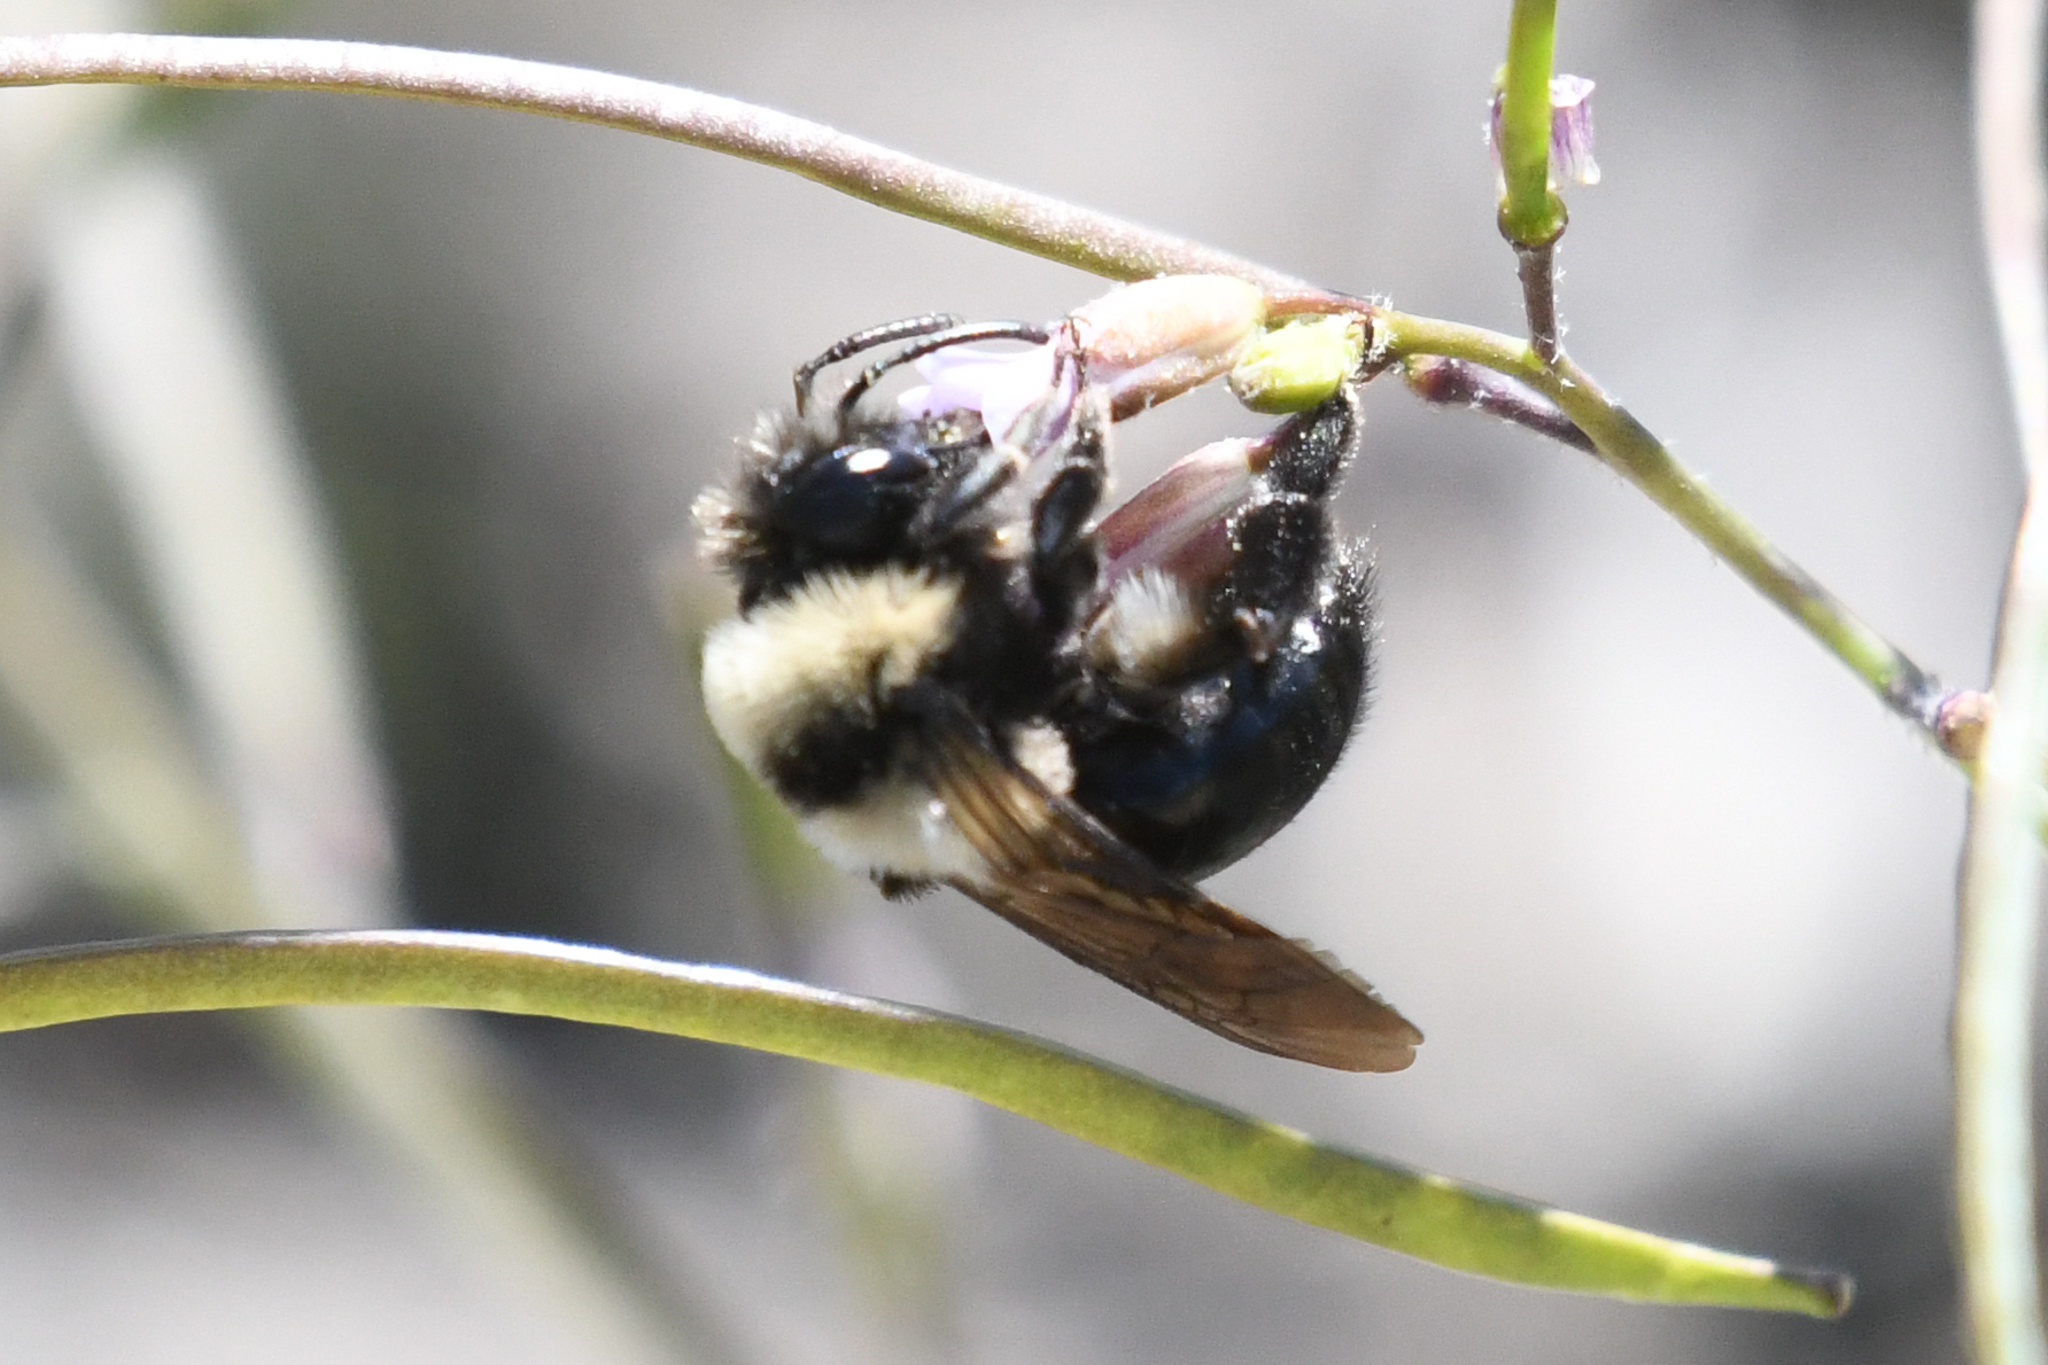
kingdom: Animalia
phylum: Arthropoda
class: Insecta
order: Hymenoptera
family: Andrenidae
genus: Andrena
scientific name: Andrena transnigra
